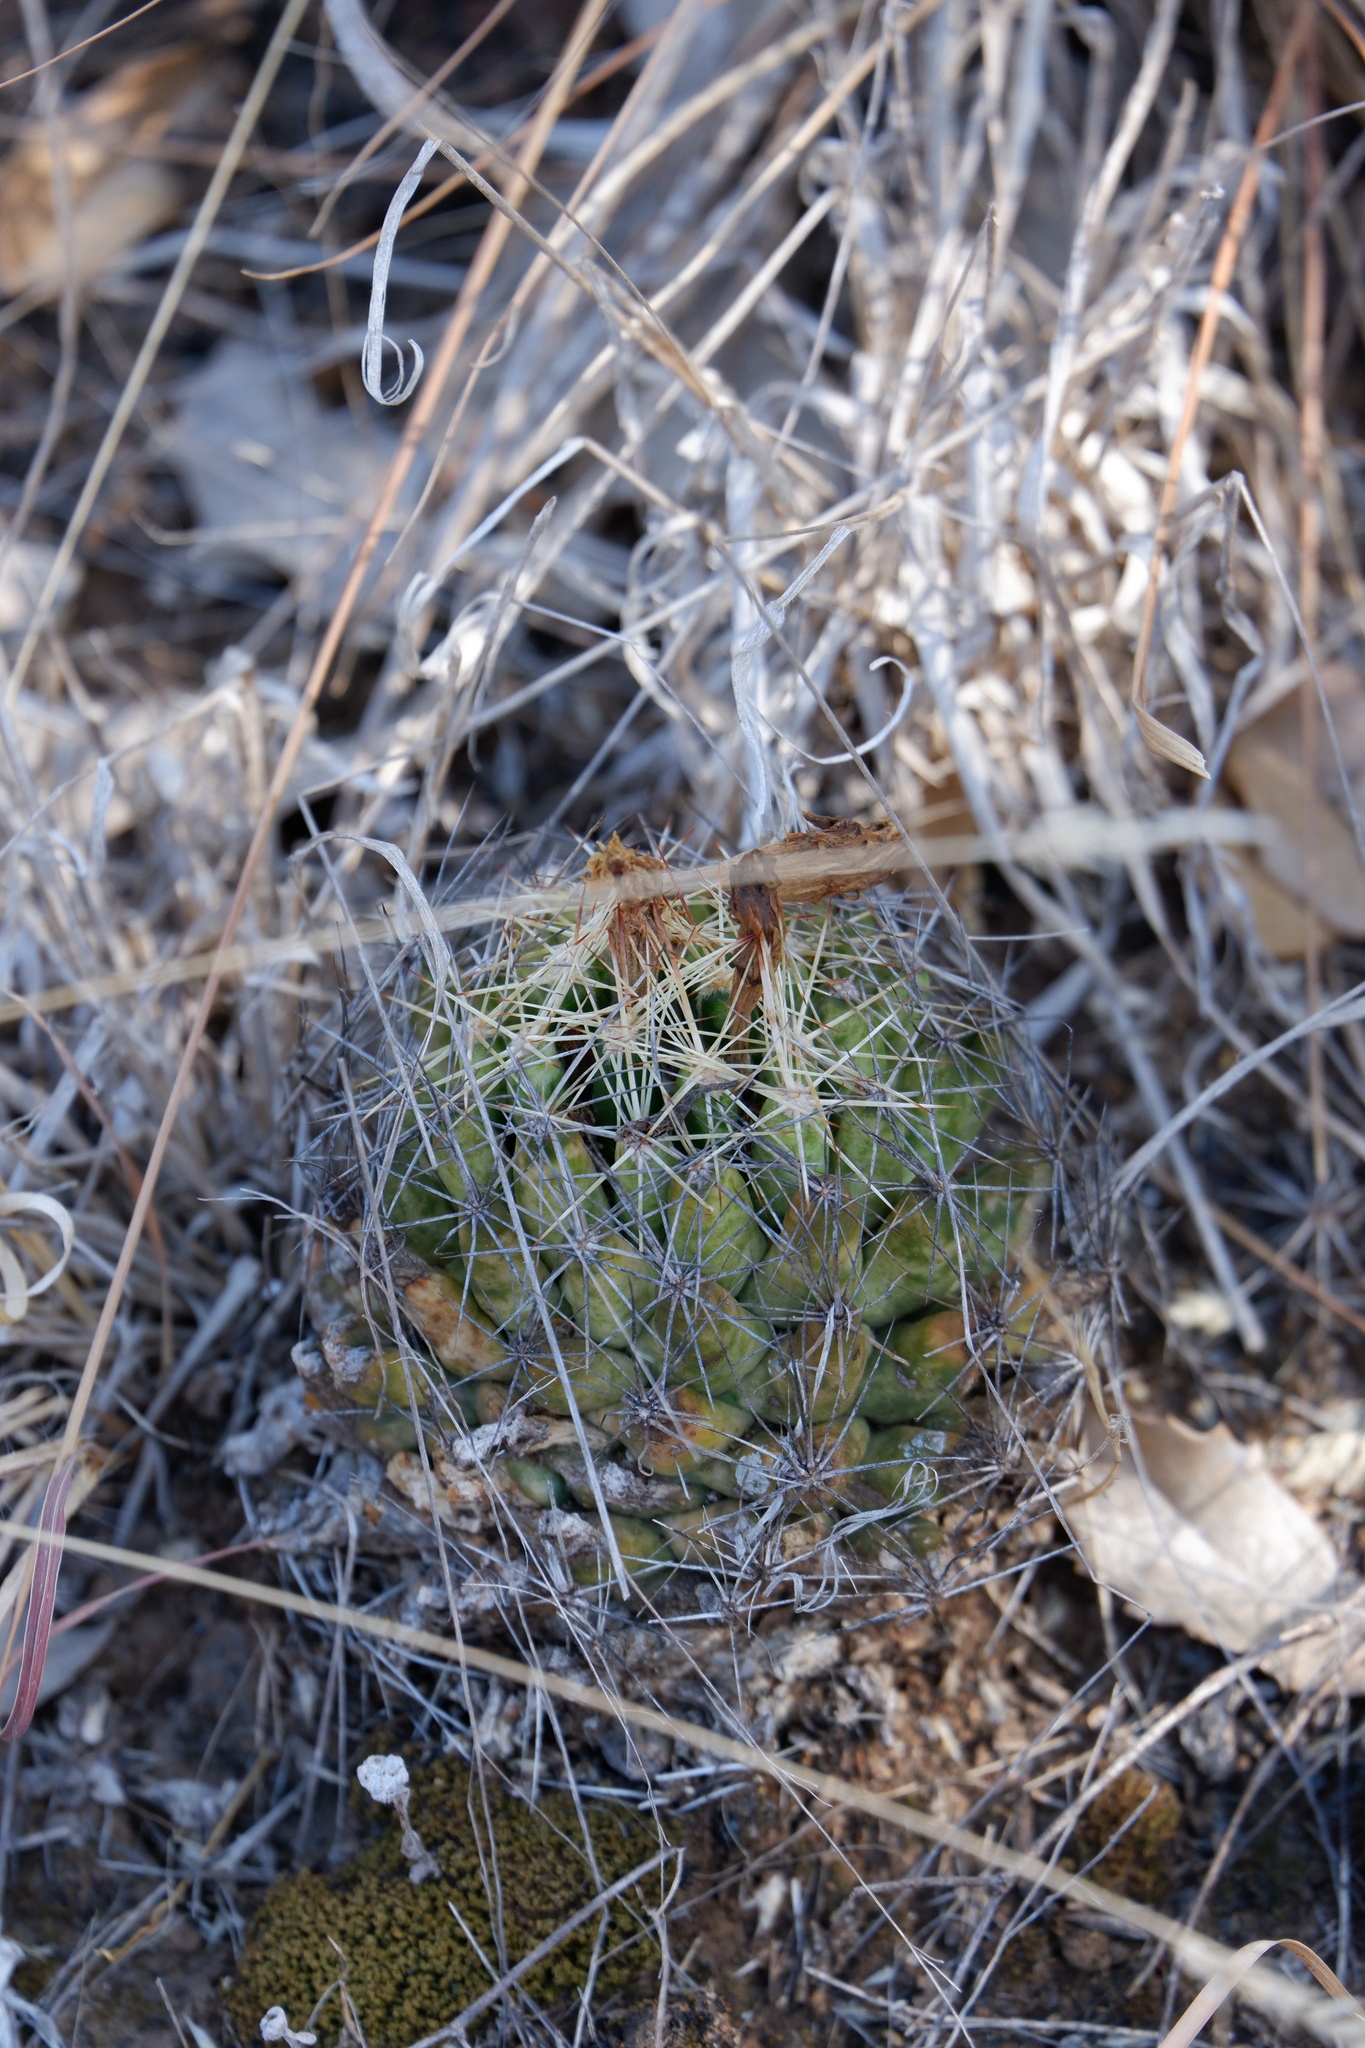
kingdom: Plantae
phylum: Tracheophyta
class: Magnoliopsida
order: Caryophyllales
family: Cactaceae
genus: Coryphantha
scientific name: Coryphantha sulcata
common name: Finger cactus
